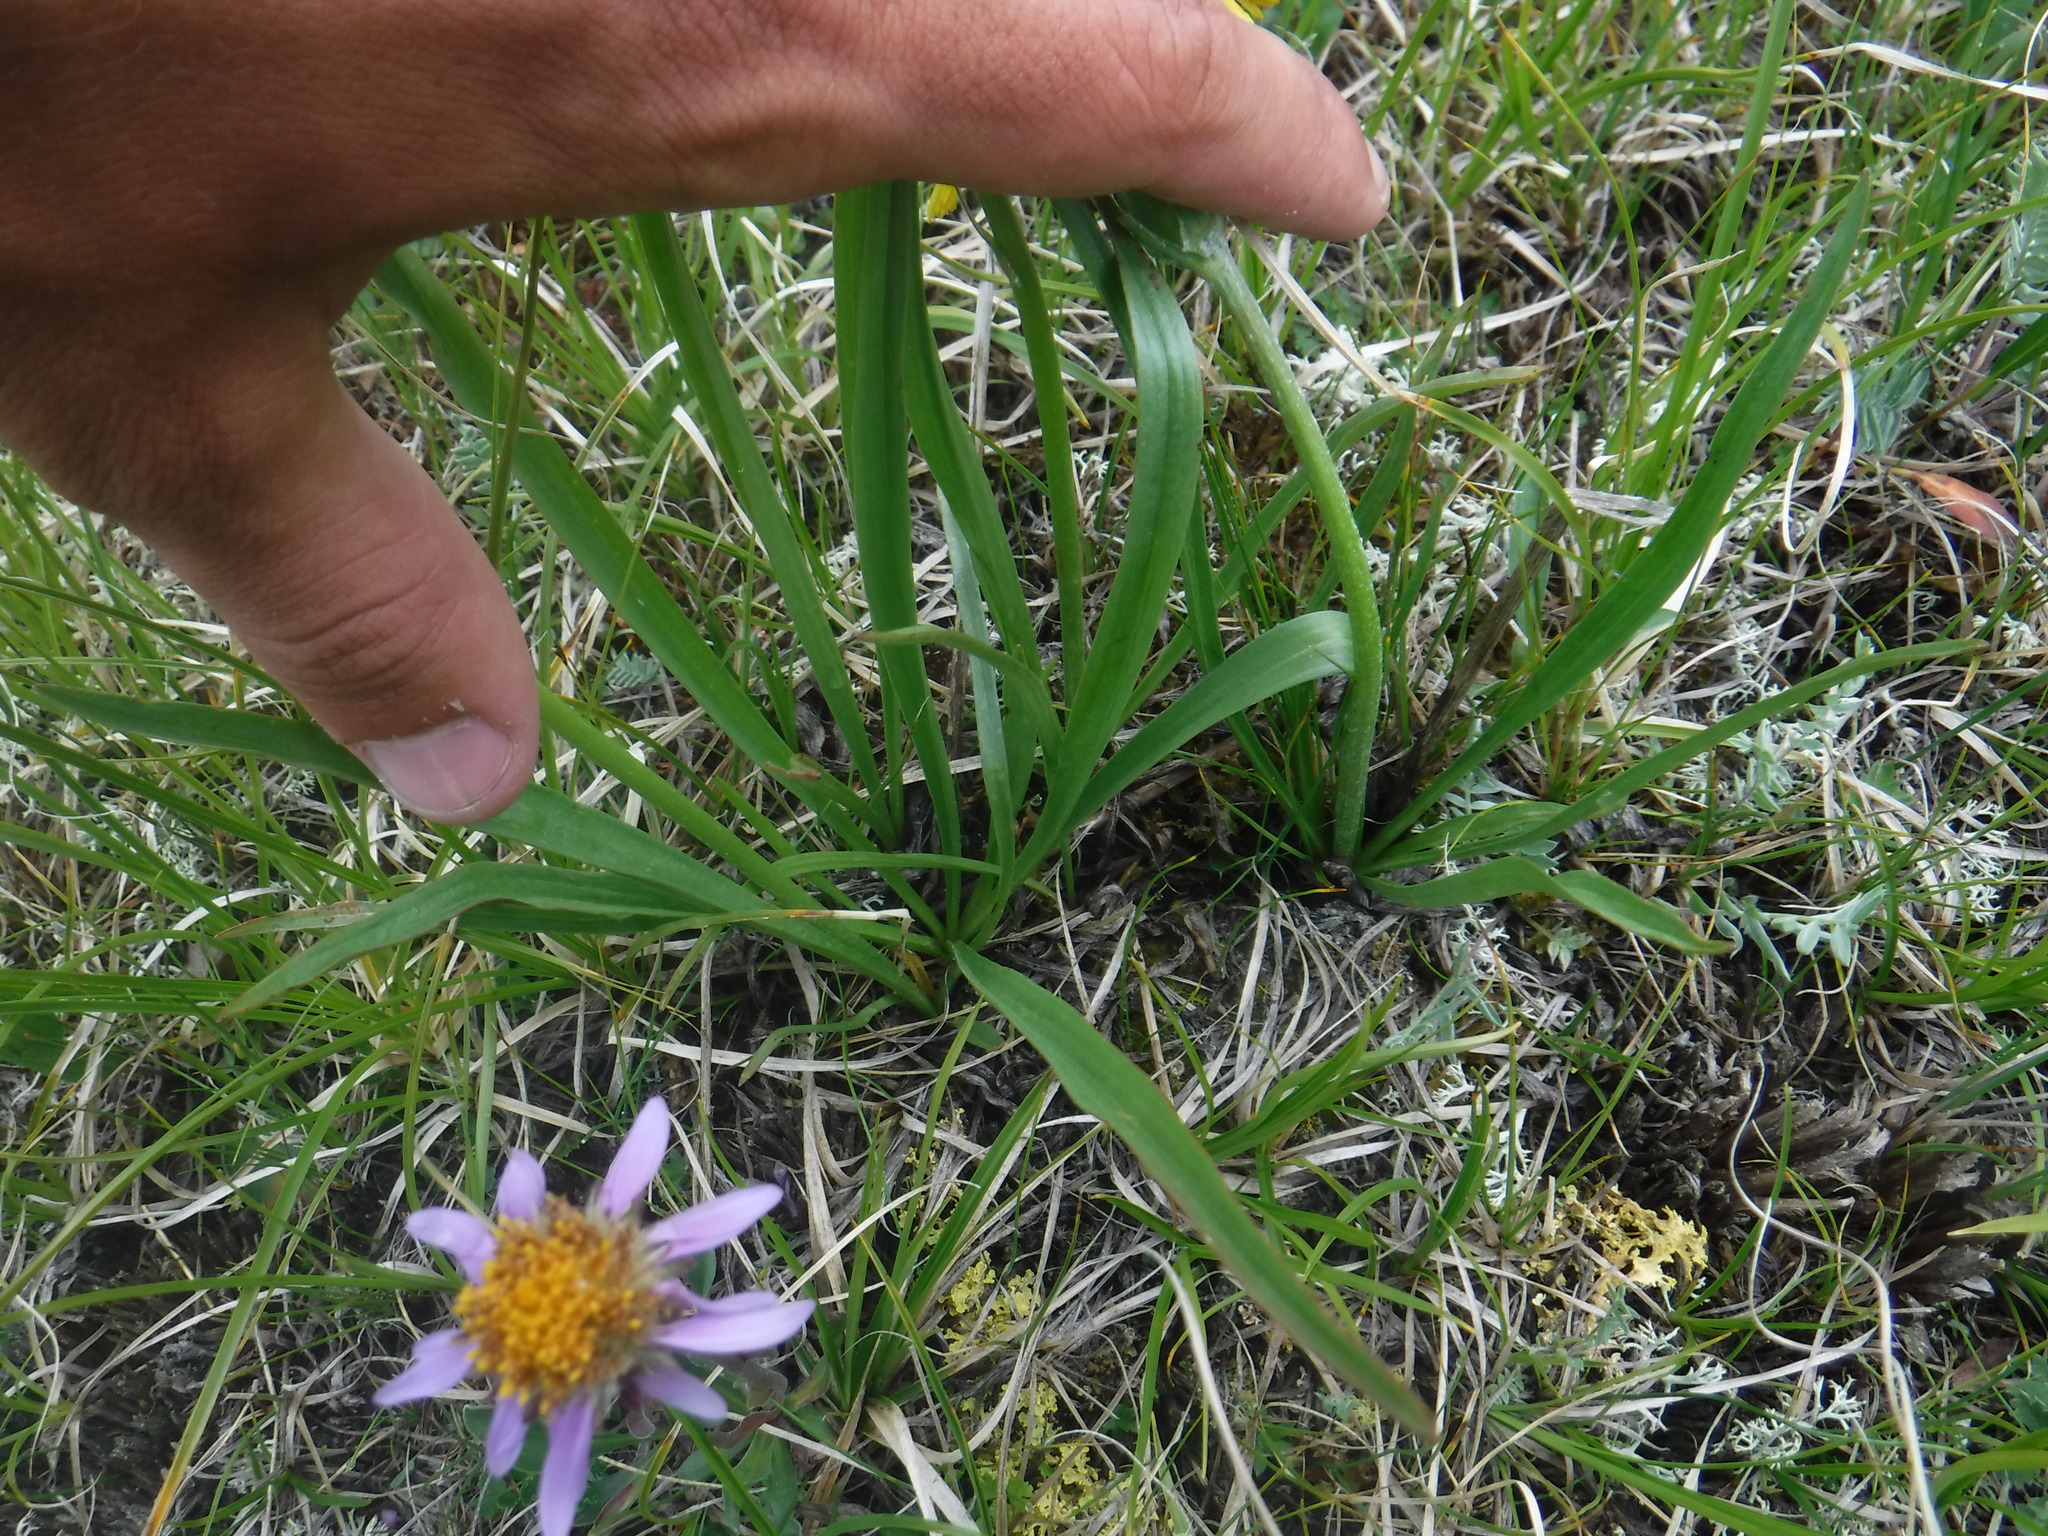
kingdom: Plantae
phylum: Tracheophyta
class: Magnoliopsida
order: Asterales
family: Asteraceae
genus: Scorzonera
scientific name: Scorzonera radiata
